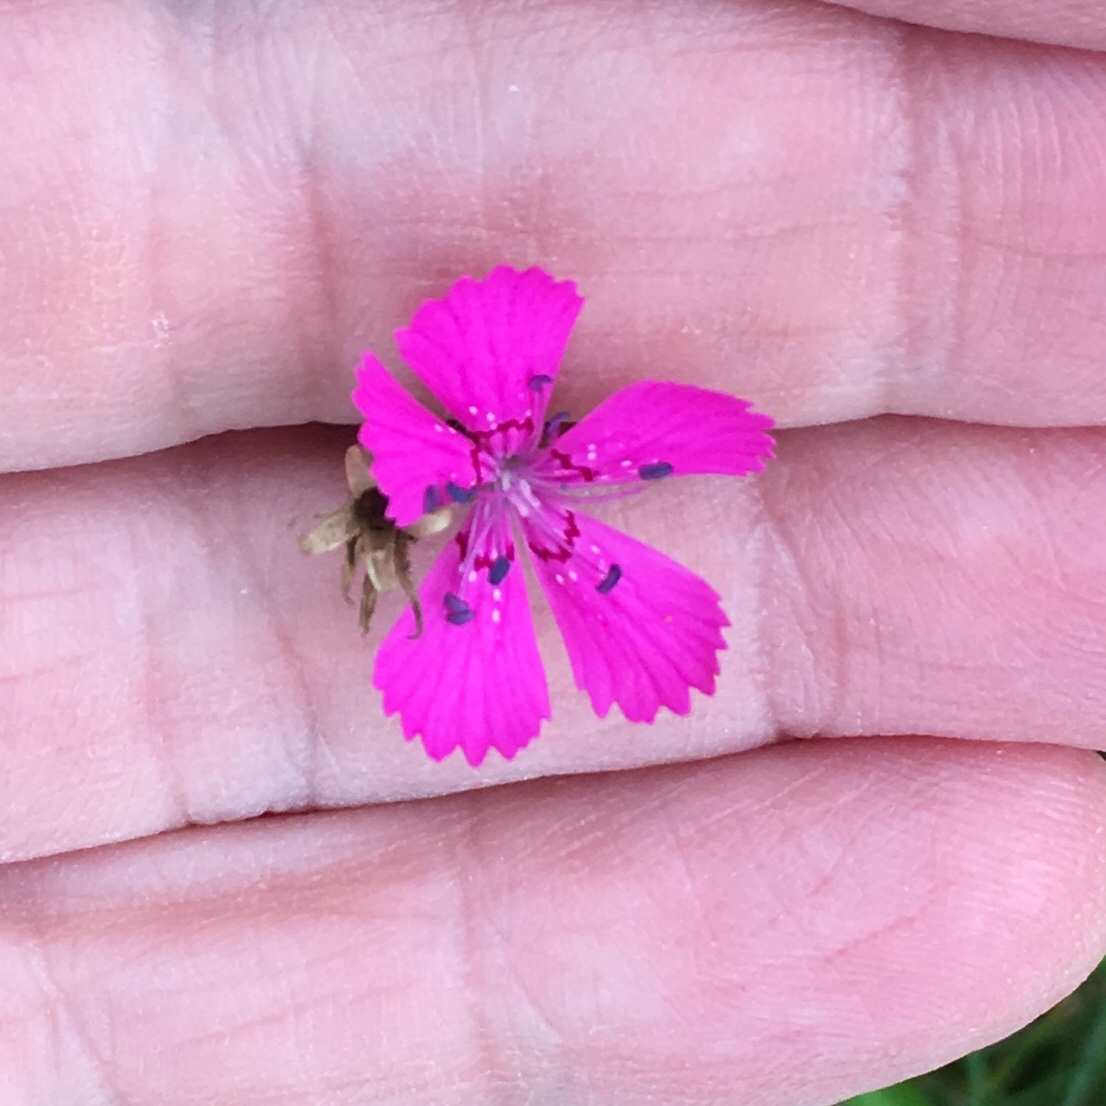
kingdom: Plantae
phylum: Tracheophyta
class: Magnoliopsida
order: Caryophyllales
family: Caryophyllaceae
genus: Dianthus
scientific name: Dianthus deltoides
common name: Maiden pink
